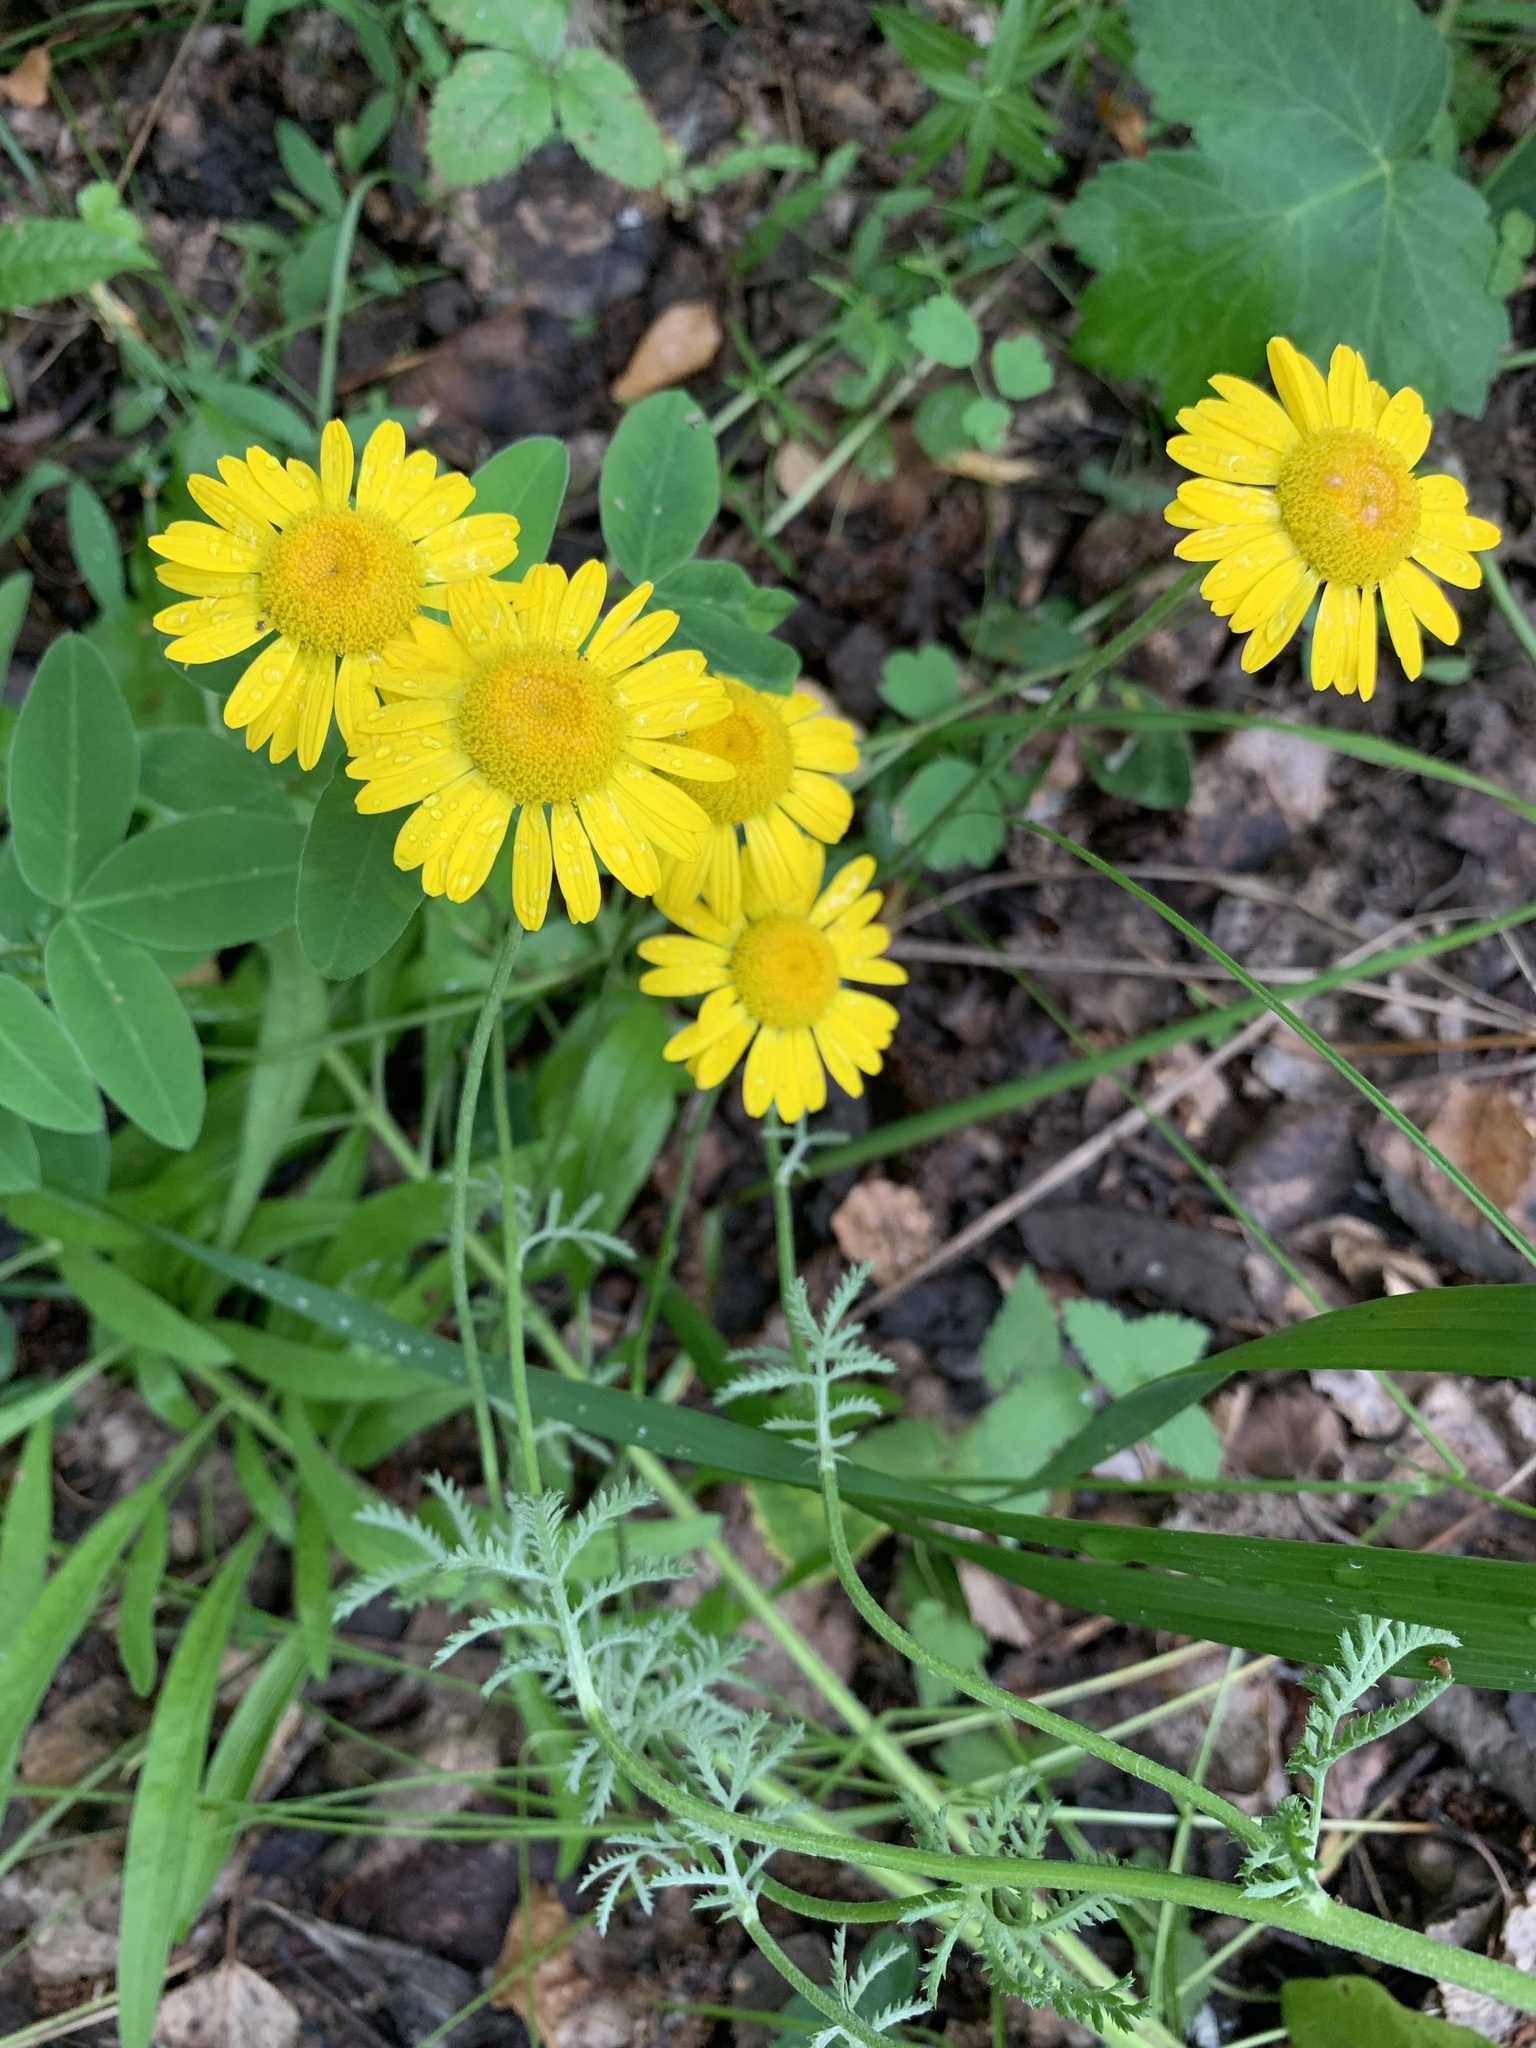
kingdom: Plantae
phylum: Tracheophyta
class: Magnoliopsida
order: Asterales
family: Asteraceae
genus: Cota
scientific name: Cota tinctoria
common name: Golden chamomile
